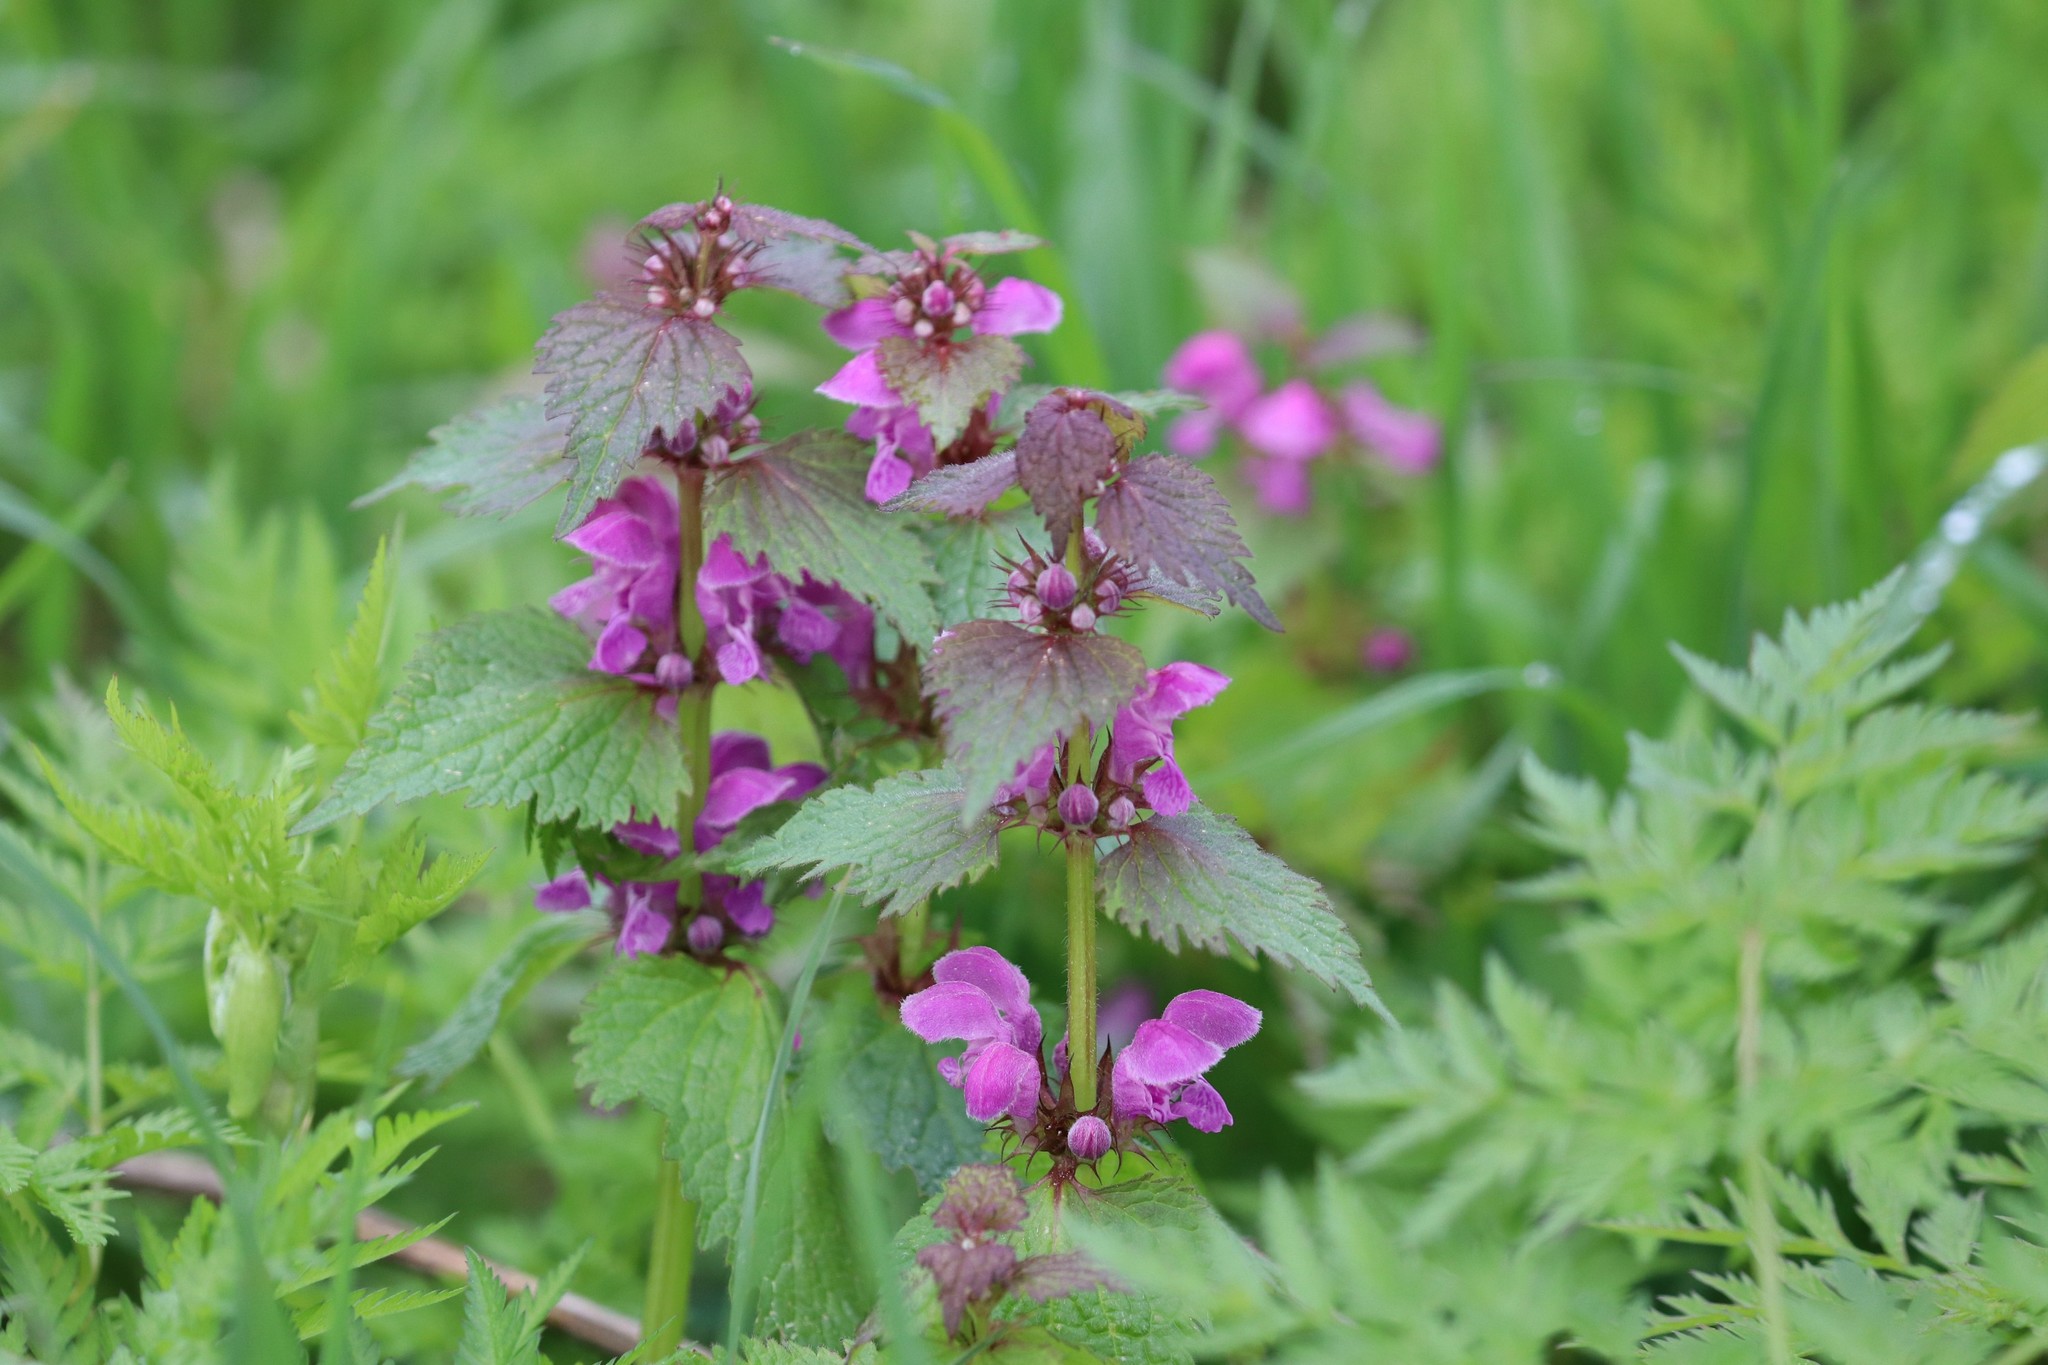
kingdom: Plantae
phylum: Tracheophyta
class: Magnoliopsida
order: Lamiales
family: Lamiaceae
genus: Lamium
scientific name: Lamium maculatum
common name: Spotted dead-nettle
